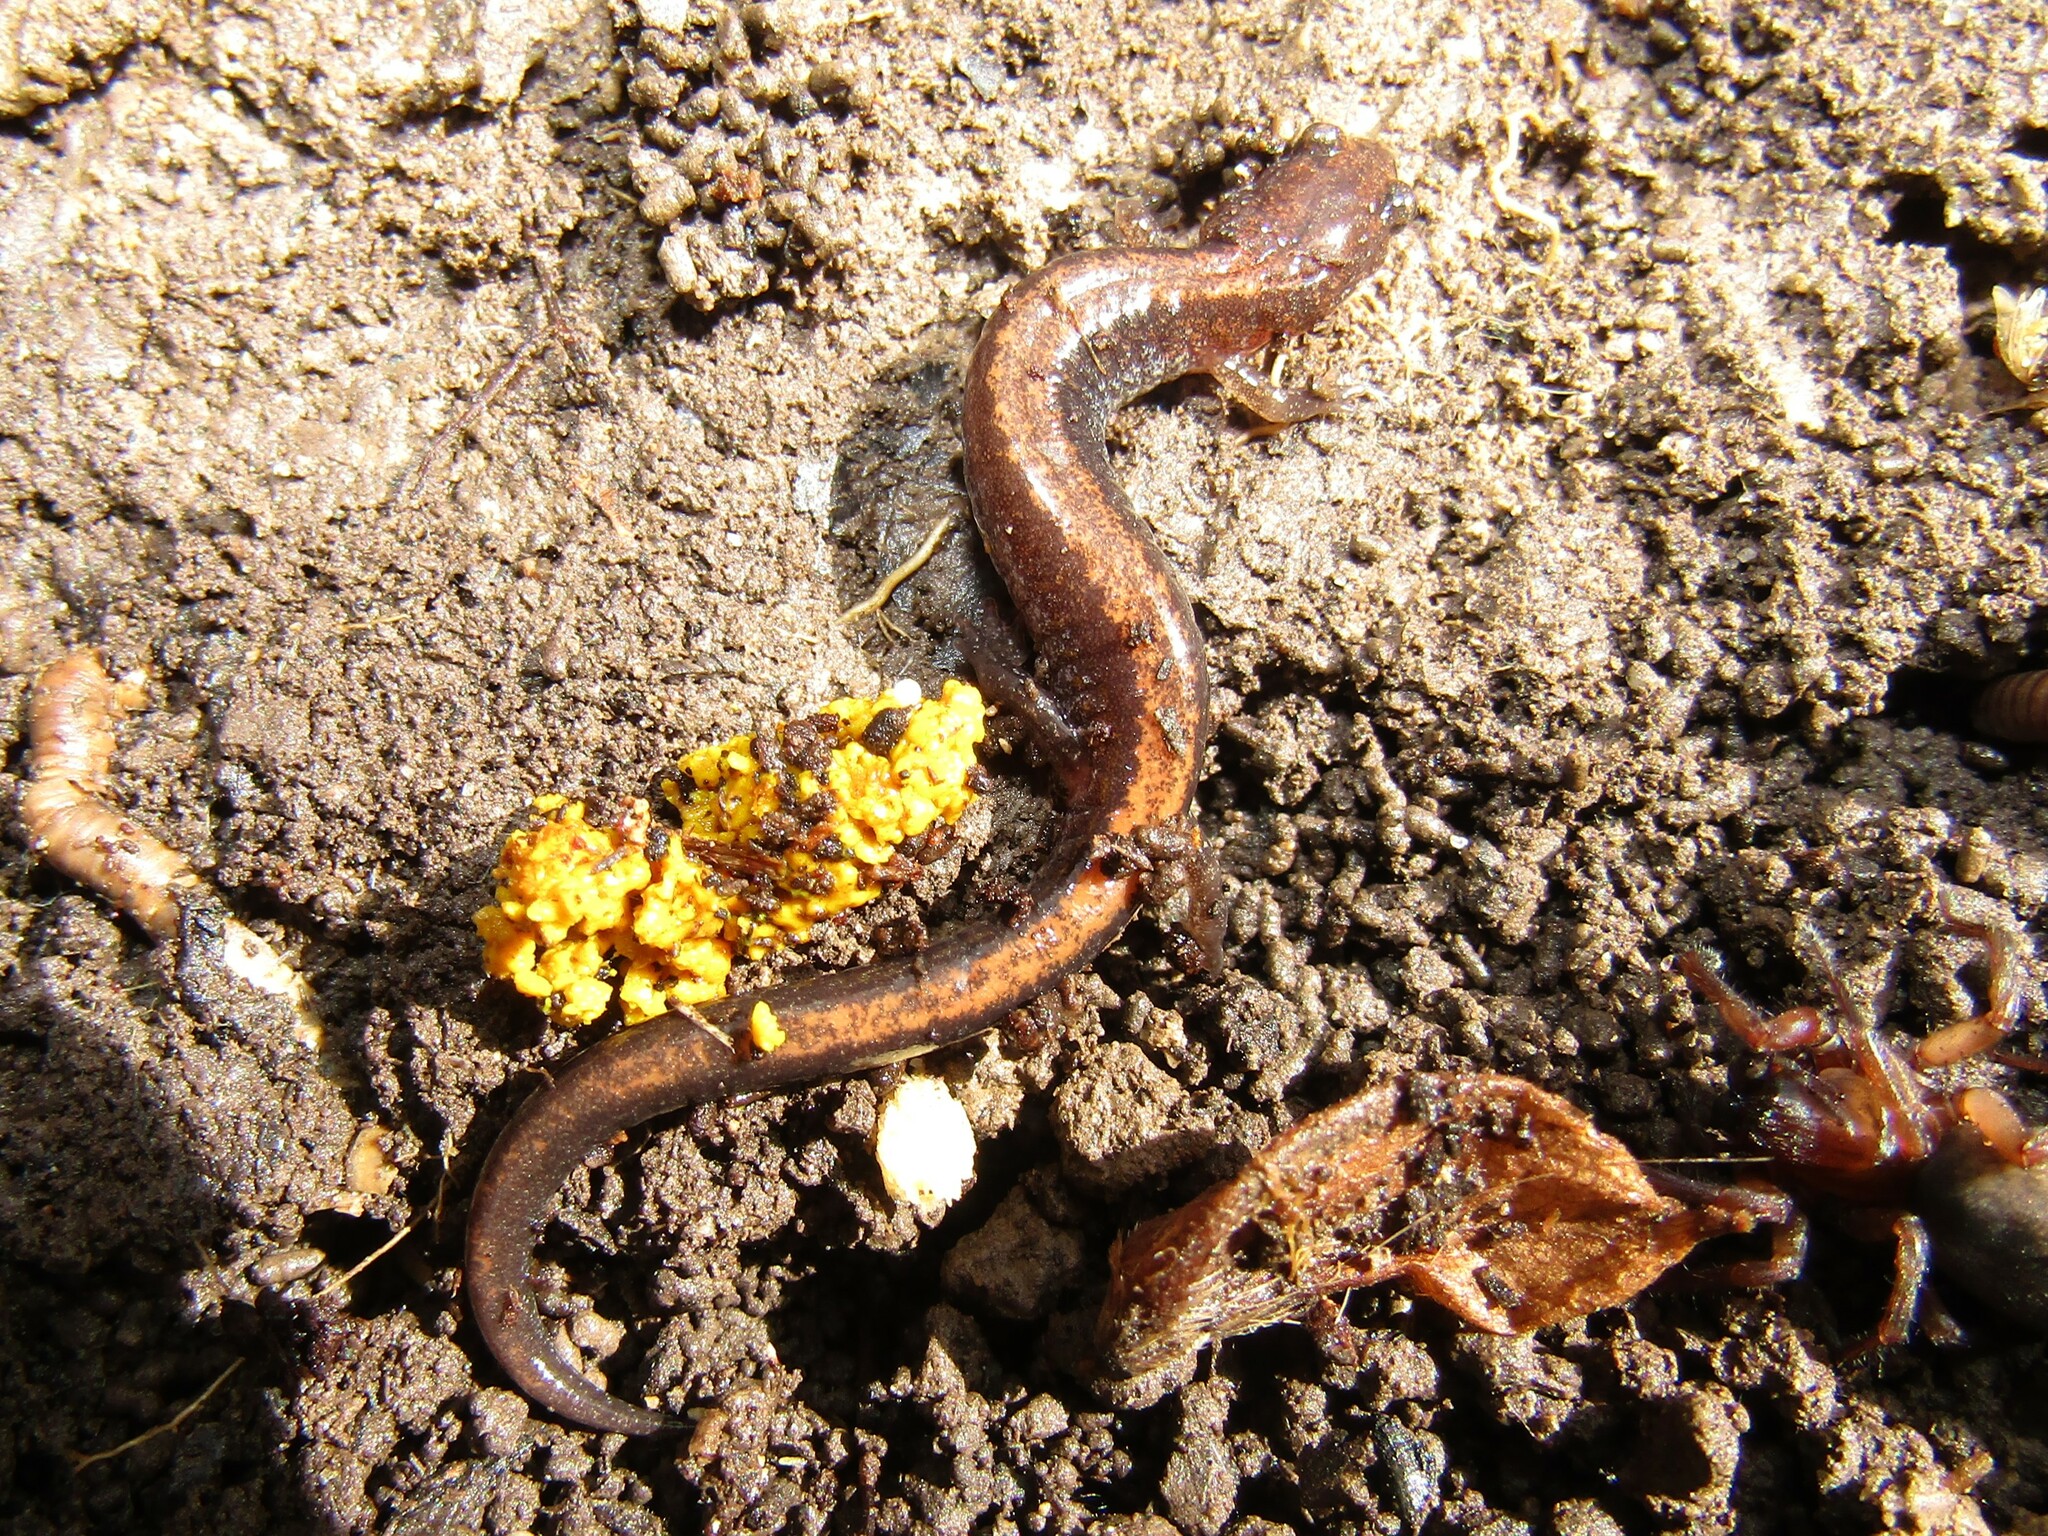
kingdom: Animalia
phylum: Chordata
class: Amphibia
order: Caudata
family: Plethodontidae
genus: Plethodon
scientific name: Plethodon cinereus
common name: Redback salamander
